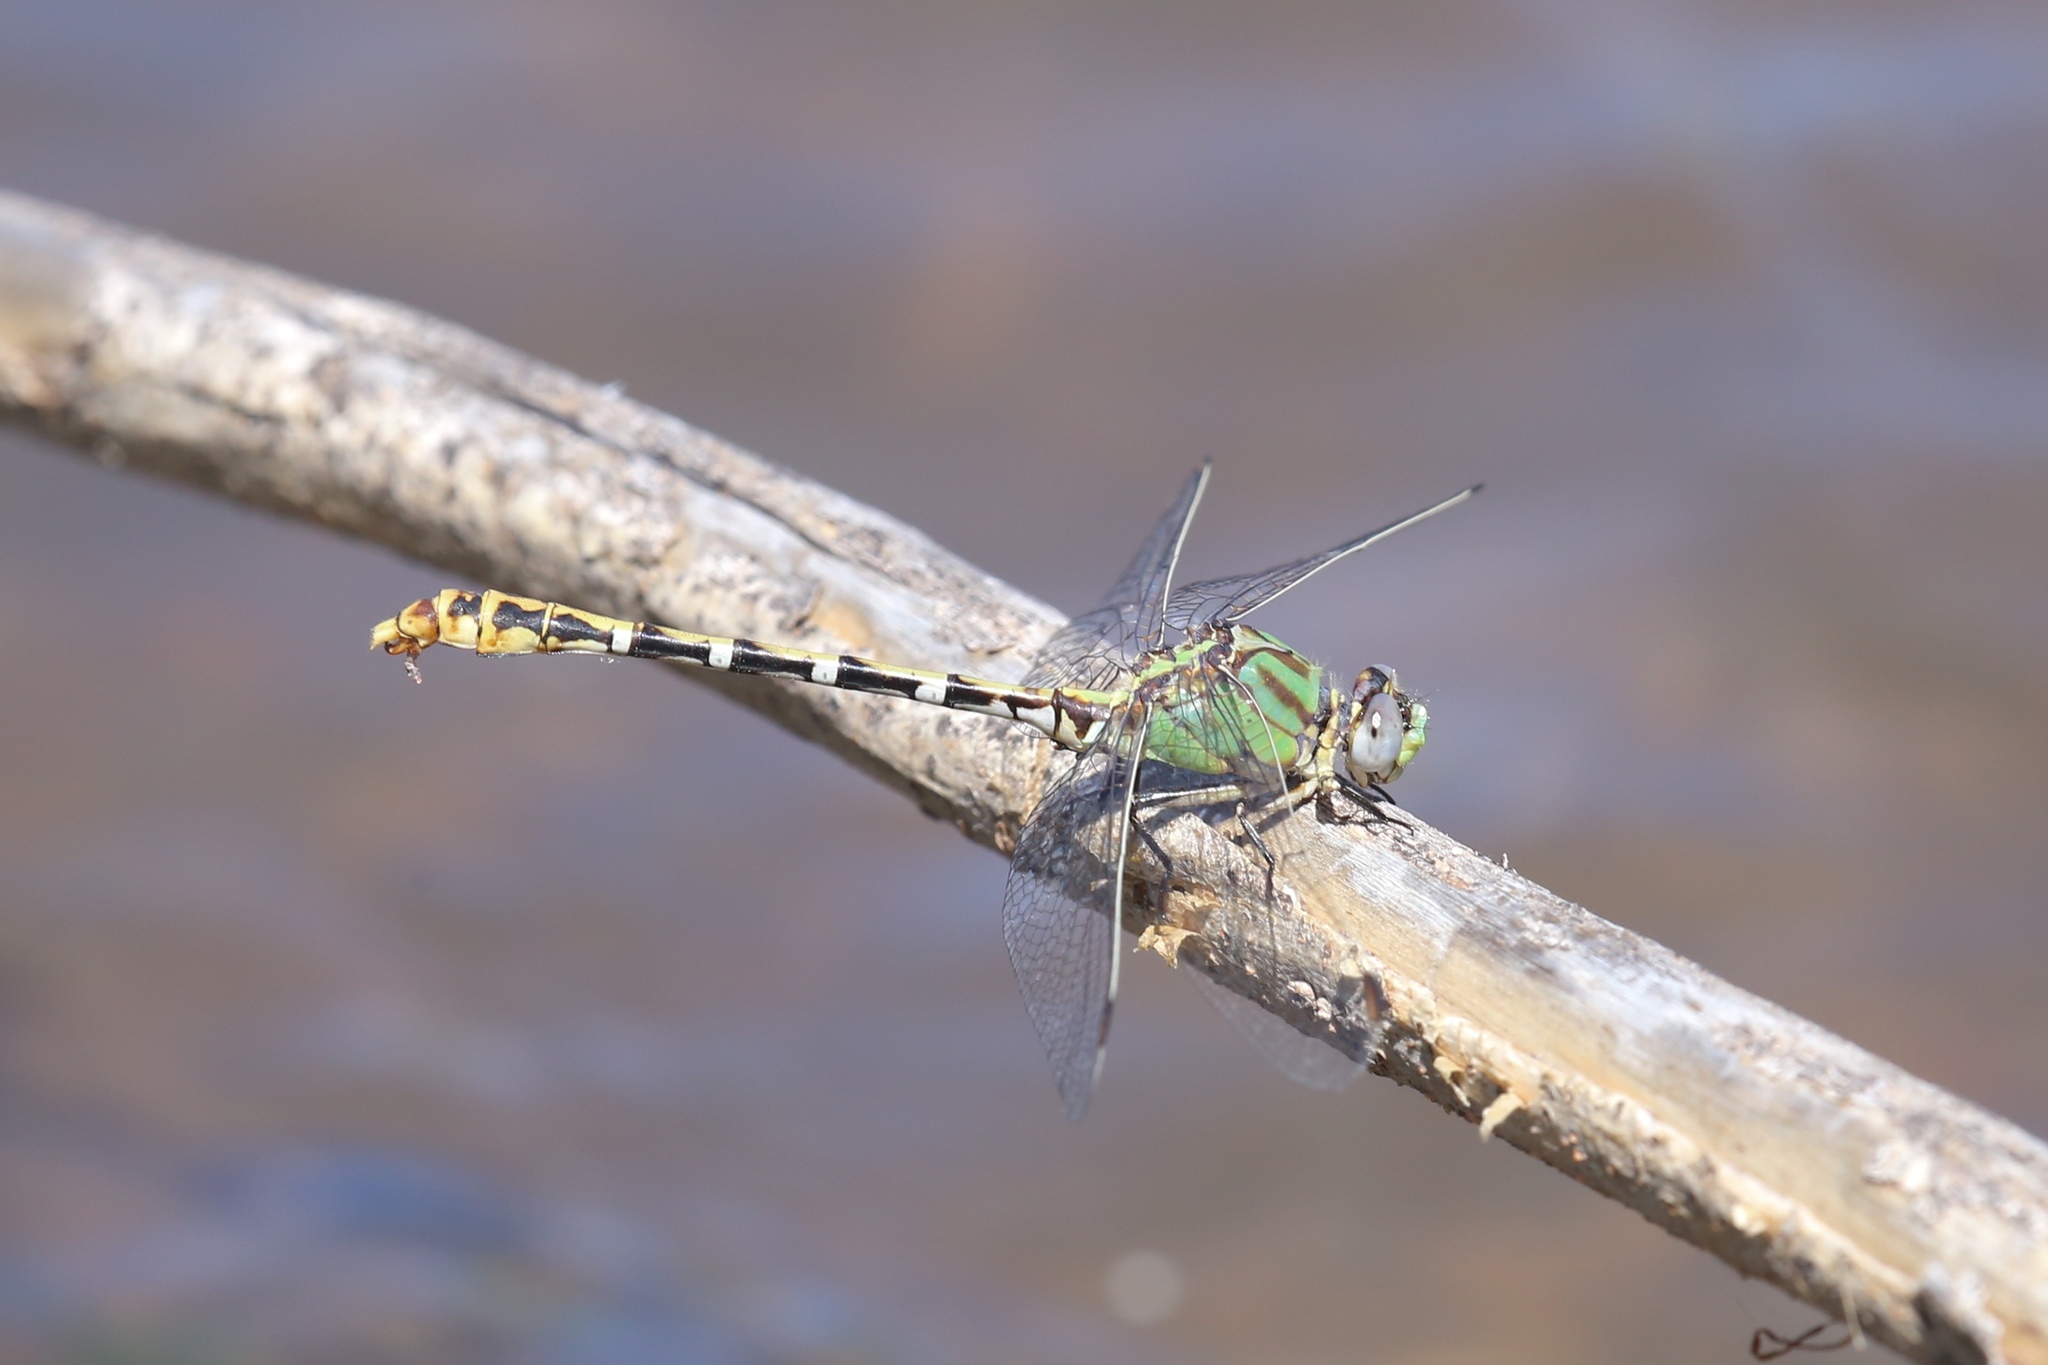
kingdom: Animalia
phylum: Arthropoda
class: Insecta
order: Odonata
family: Gomphidae
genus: Erpetogomphus
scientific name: Erpetogomphus heterodon
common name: Dashed ringtail
